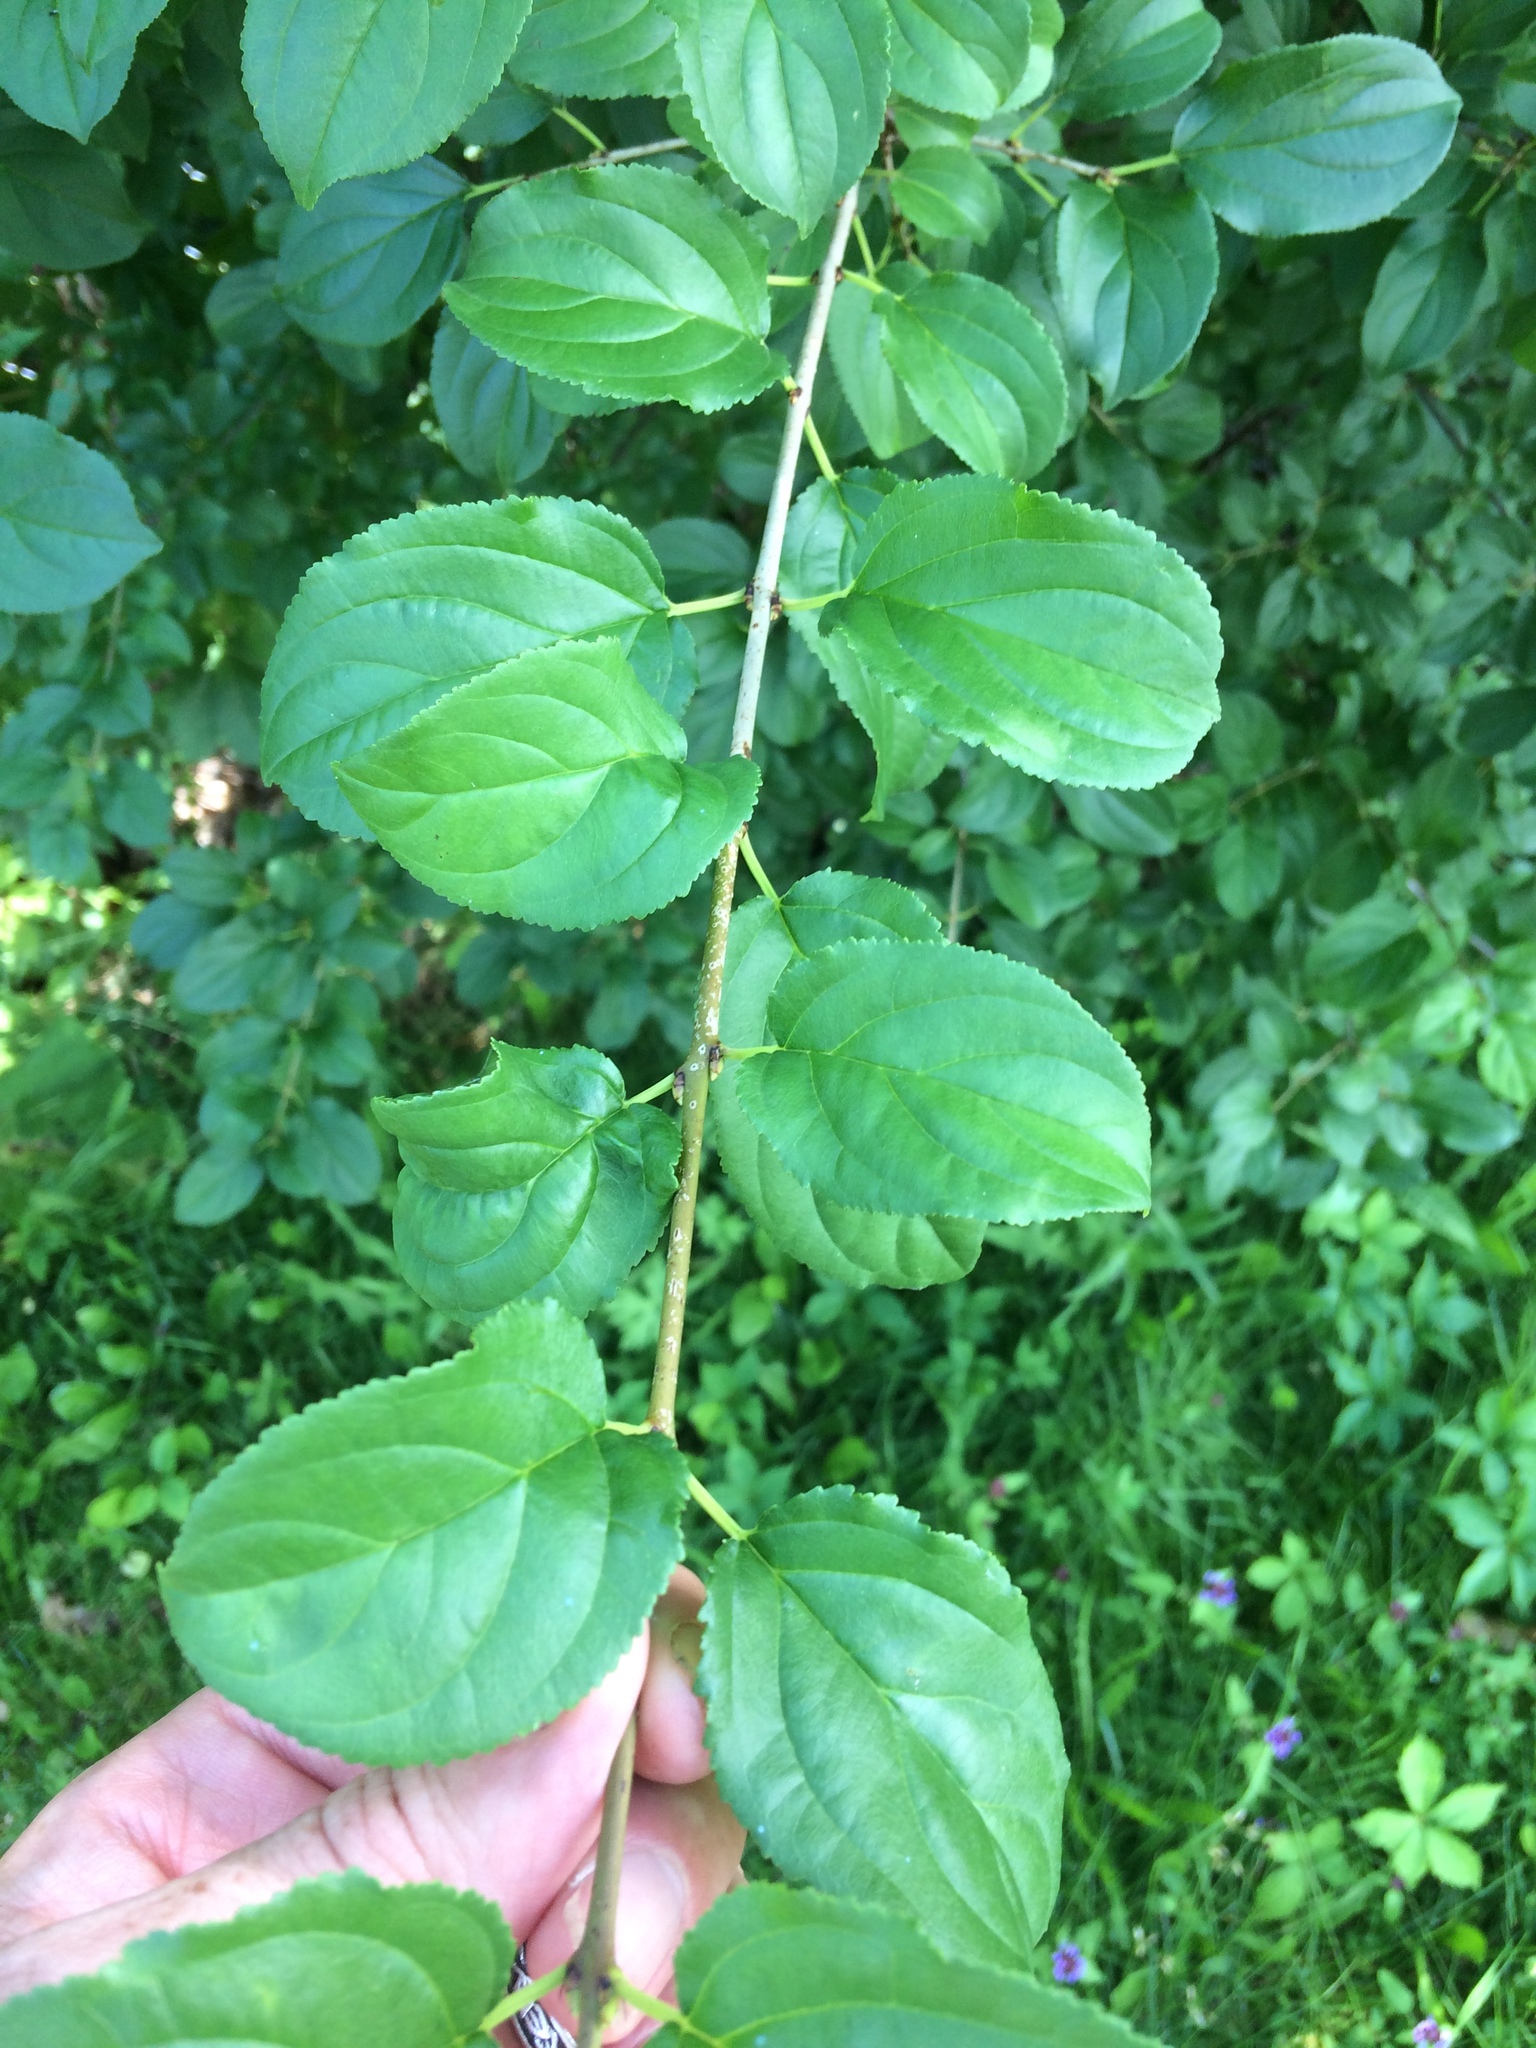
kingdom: Plantae
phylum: Tracheophyta
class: Magnoliopsida
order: Rosales
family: Rhamnaceae
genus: Rhamnus
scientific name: Rhamnus cathartica
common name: Common buckthorn
